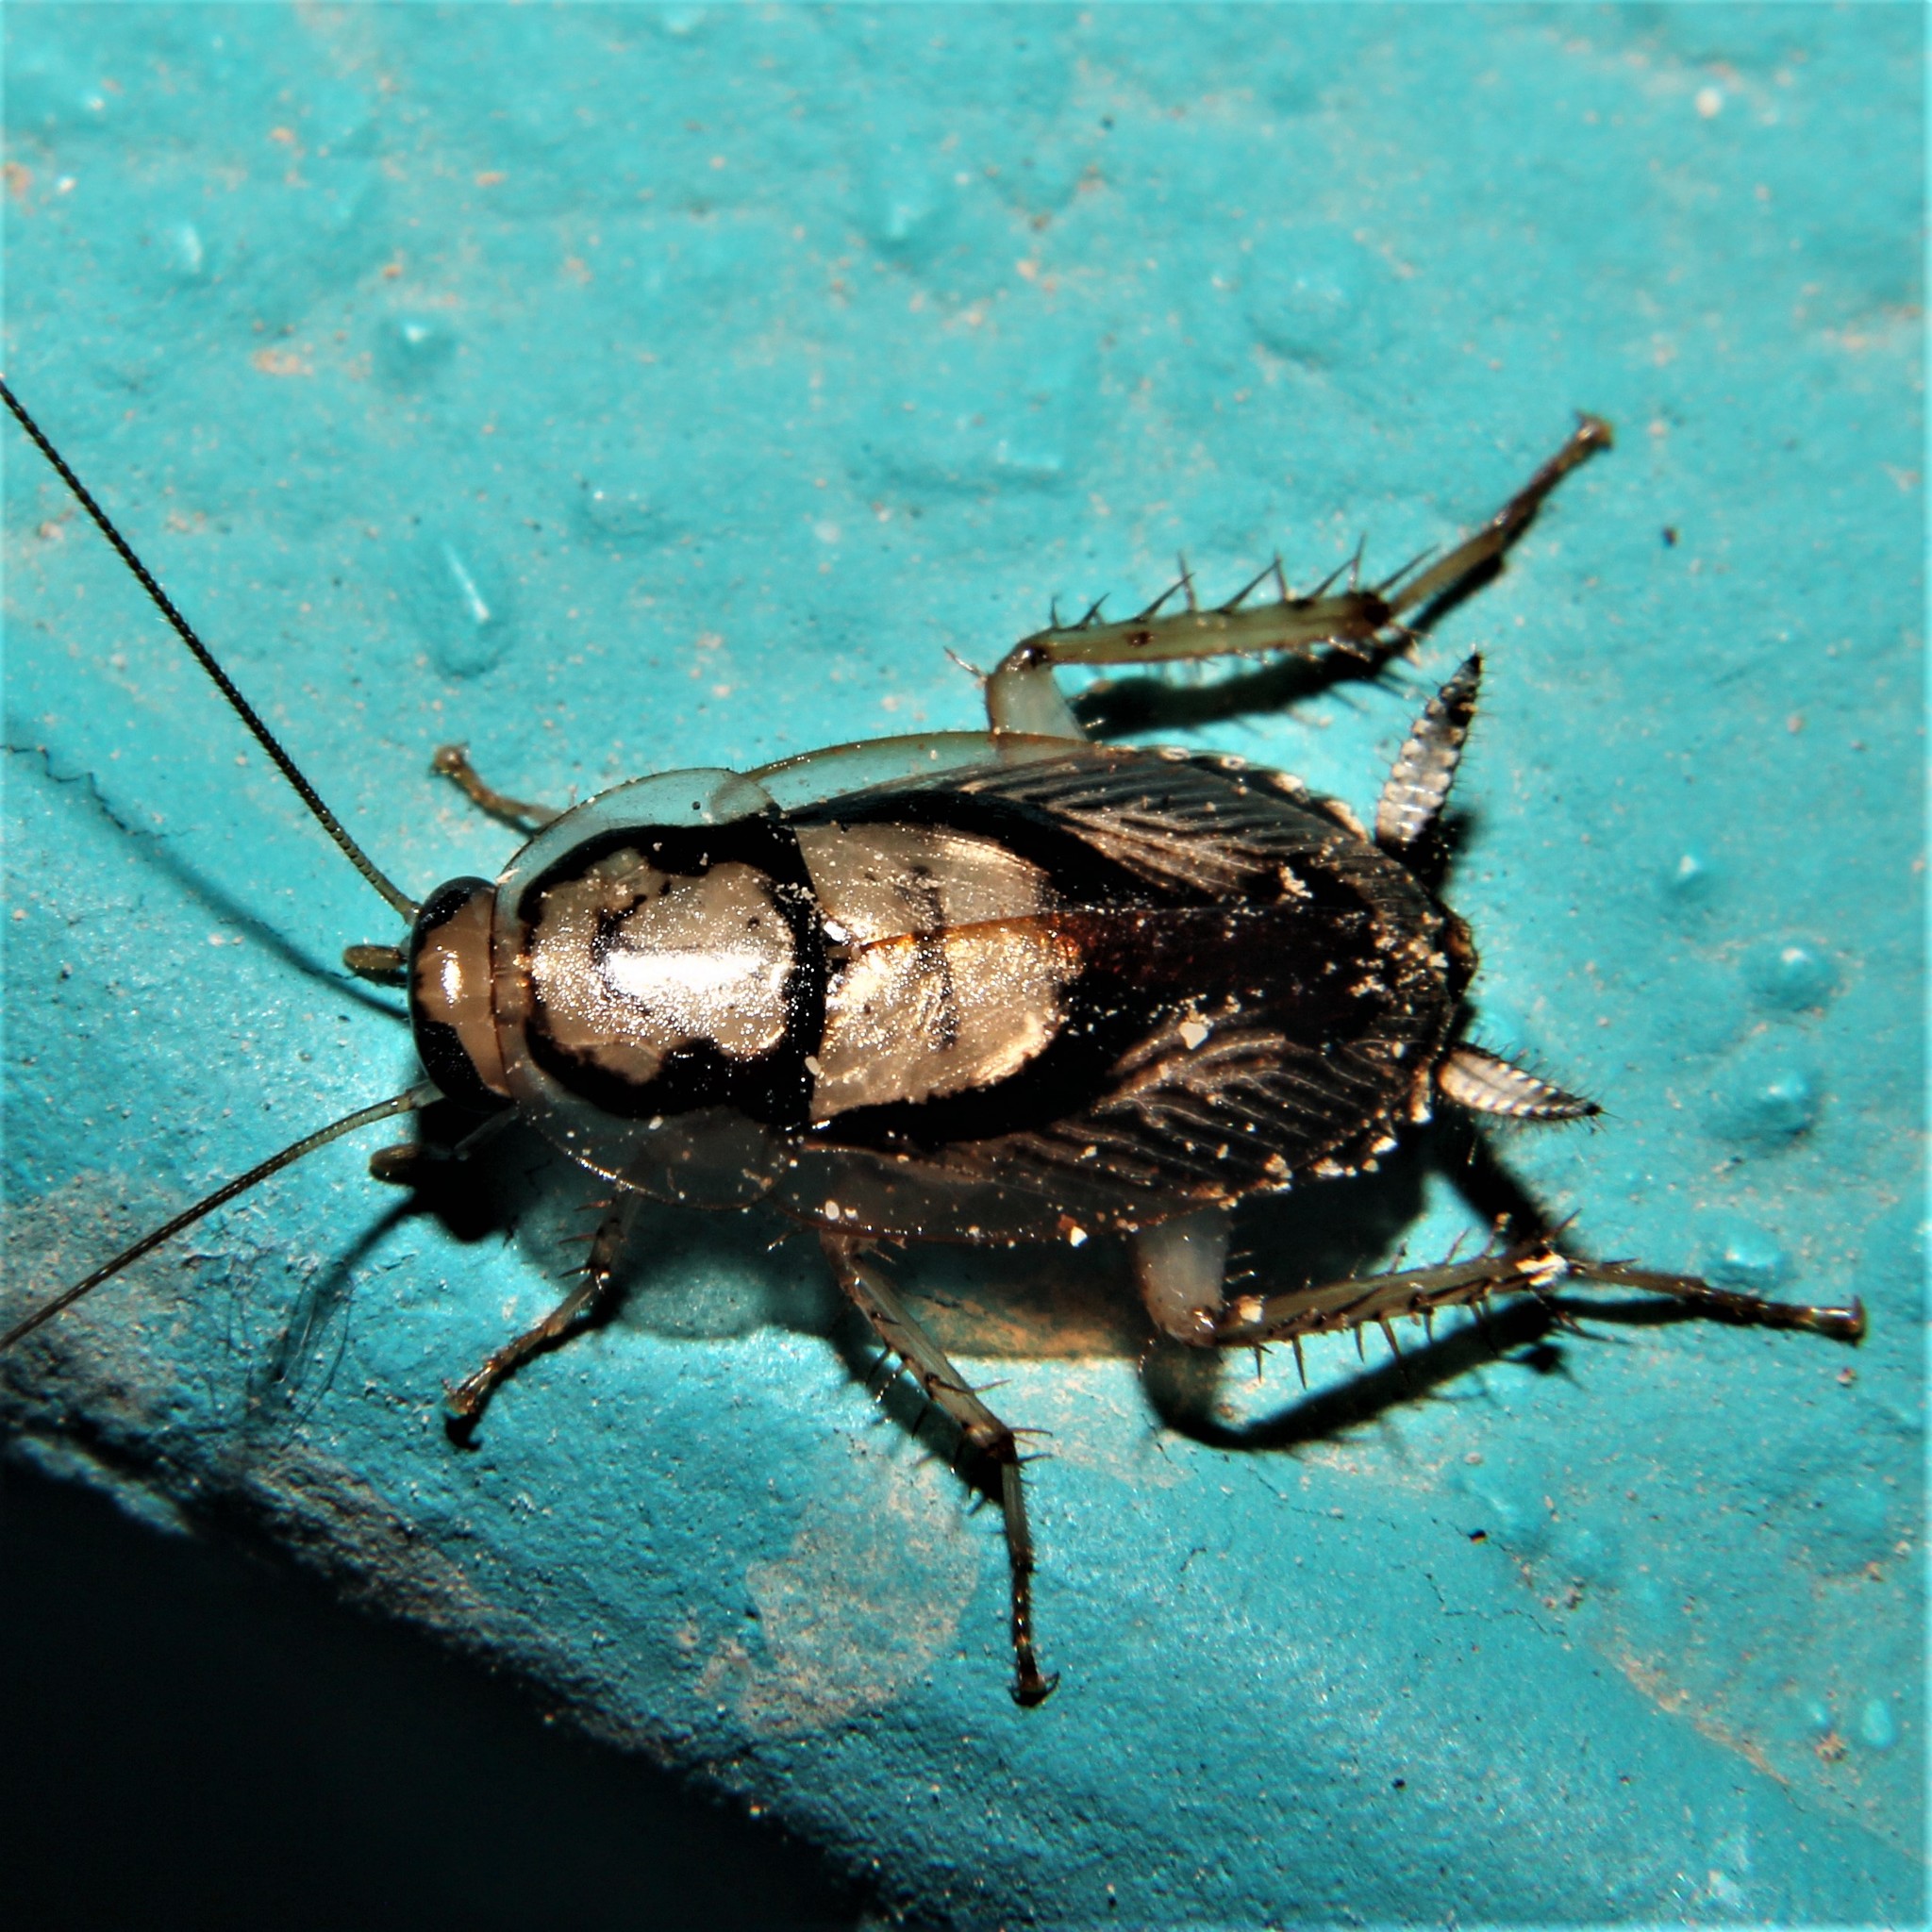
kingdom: Animalia
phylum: Arthropoda
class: Insecta
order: Blattodea
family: Ectobiidae
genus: Euthlastoblatta
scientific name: Euthlastoblatta facies
